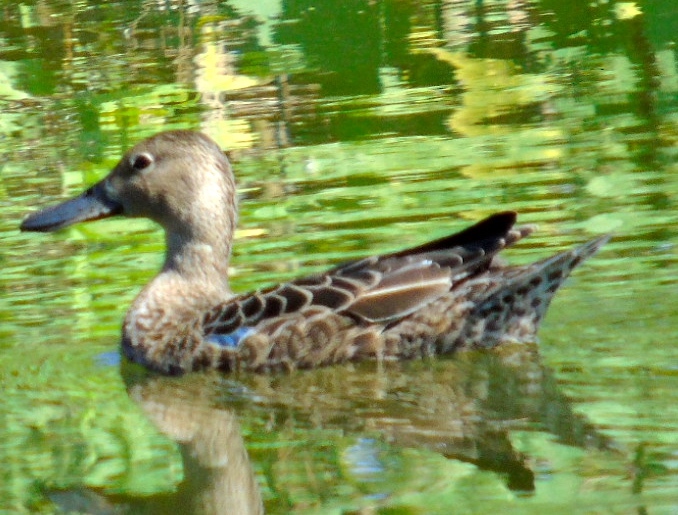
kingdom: Animalia
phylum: Chordata
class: Aves
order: Anseriformes
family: Anatidae
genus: Spatula
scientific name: Spatula cyanoptera
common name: Cinnamon teal
